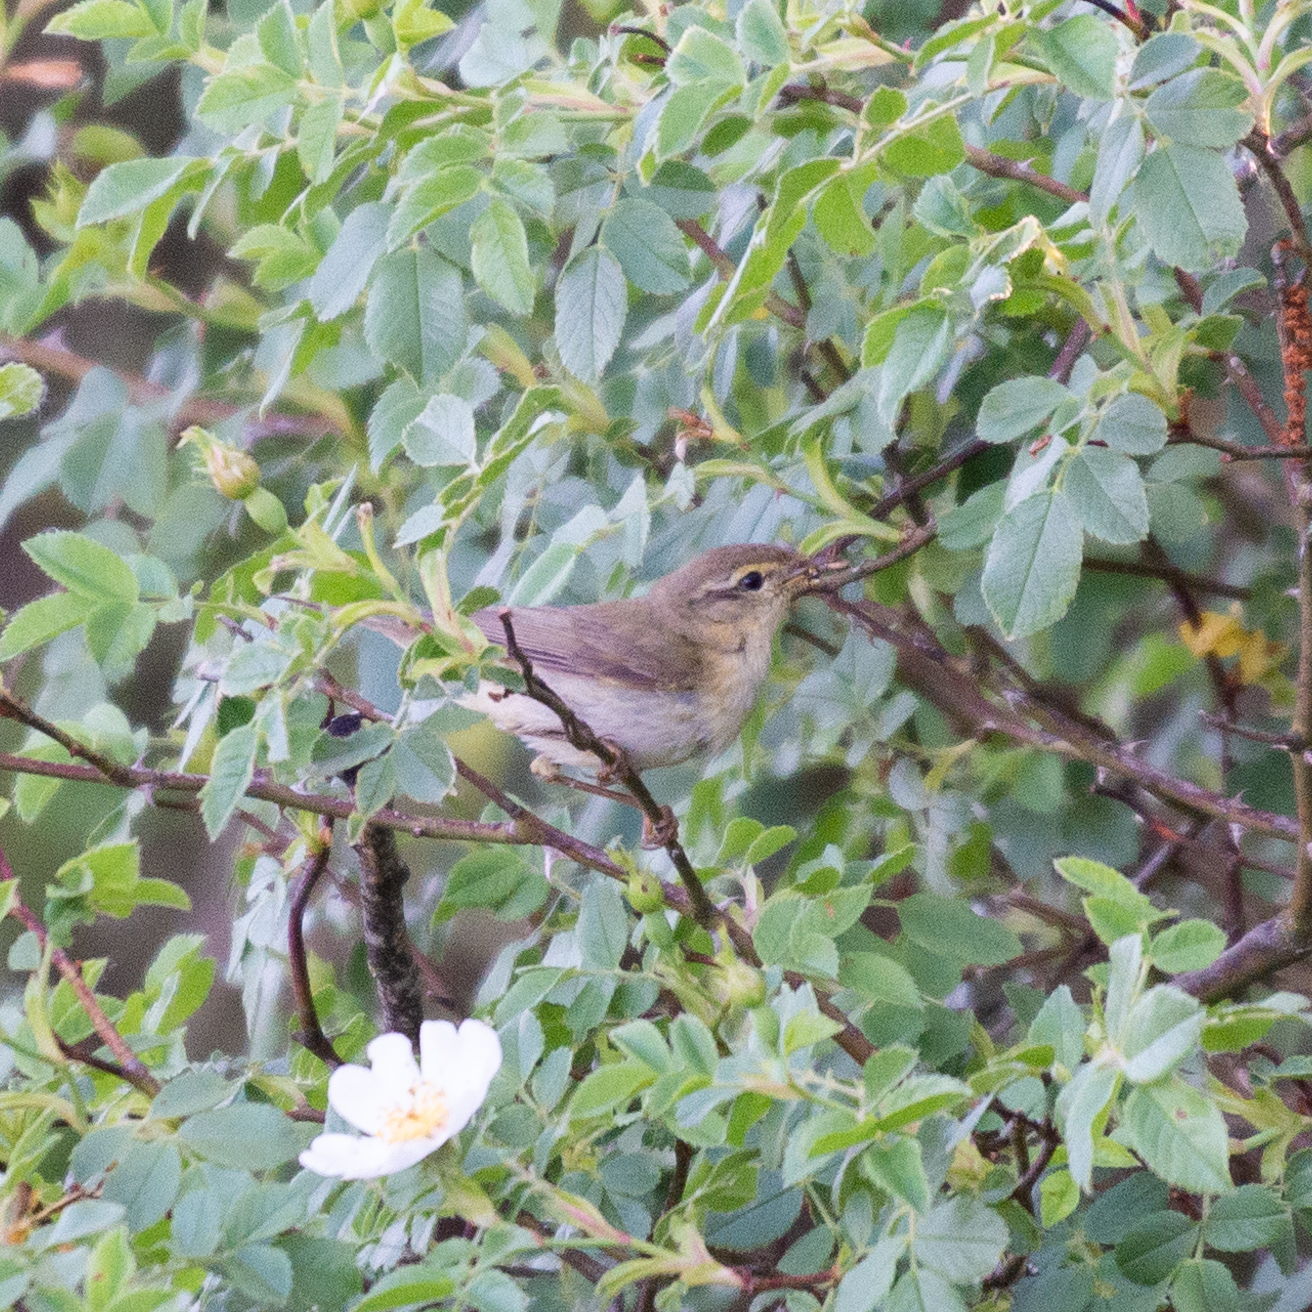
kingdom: Animalia
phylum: Chordata
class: Aves
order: Passeriformes
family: Phylloscopidae
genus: Phylloscopus
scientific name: Phylloscopus ibericus
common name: Iberian chiffchaff
